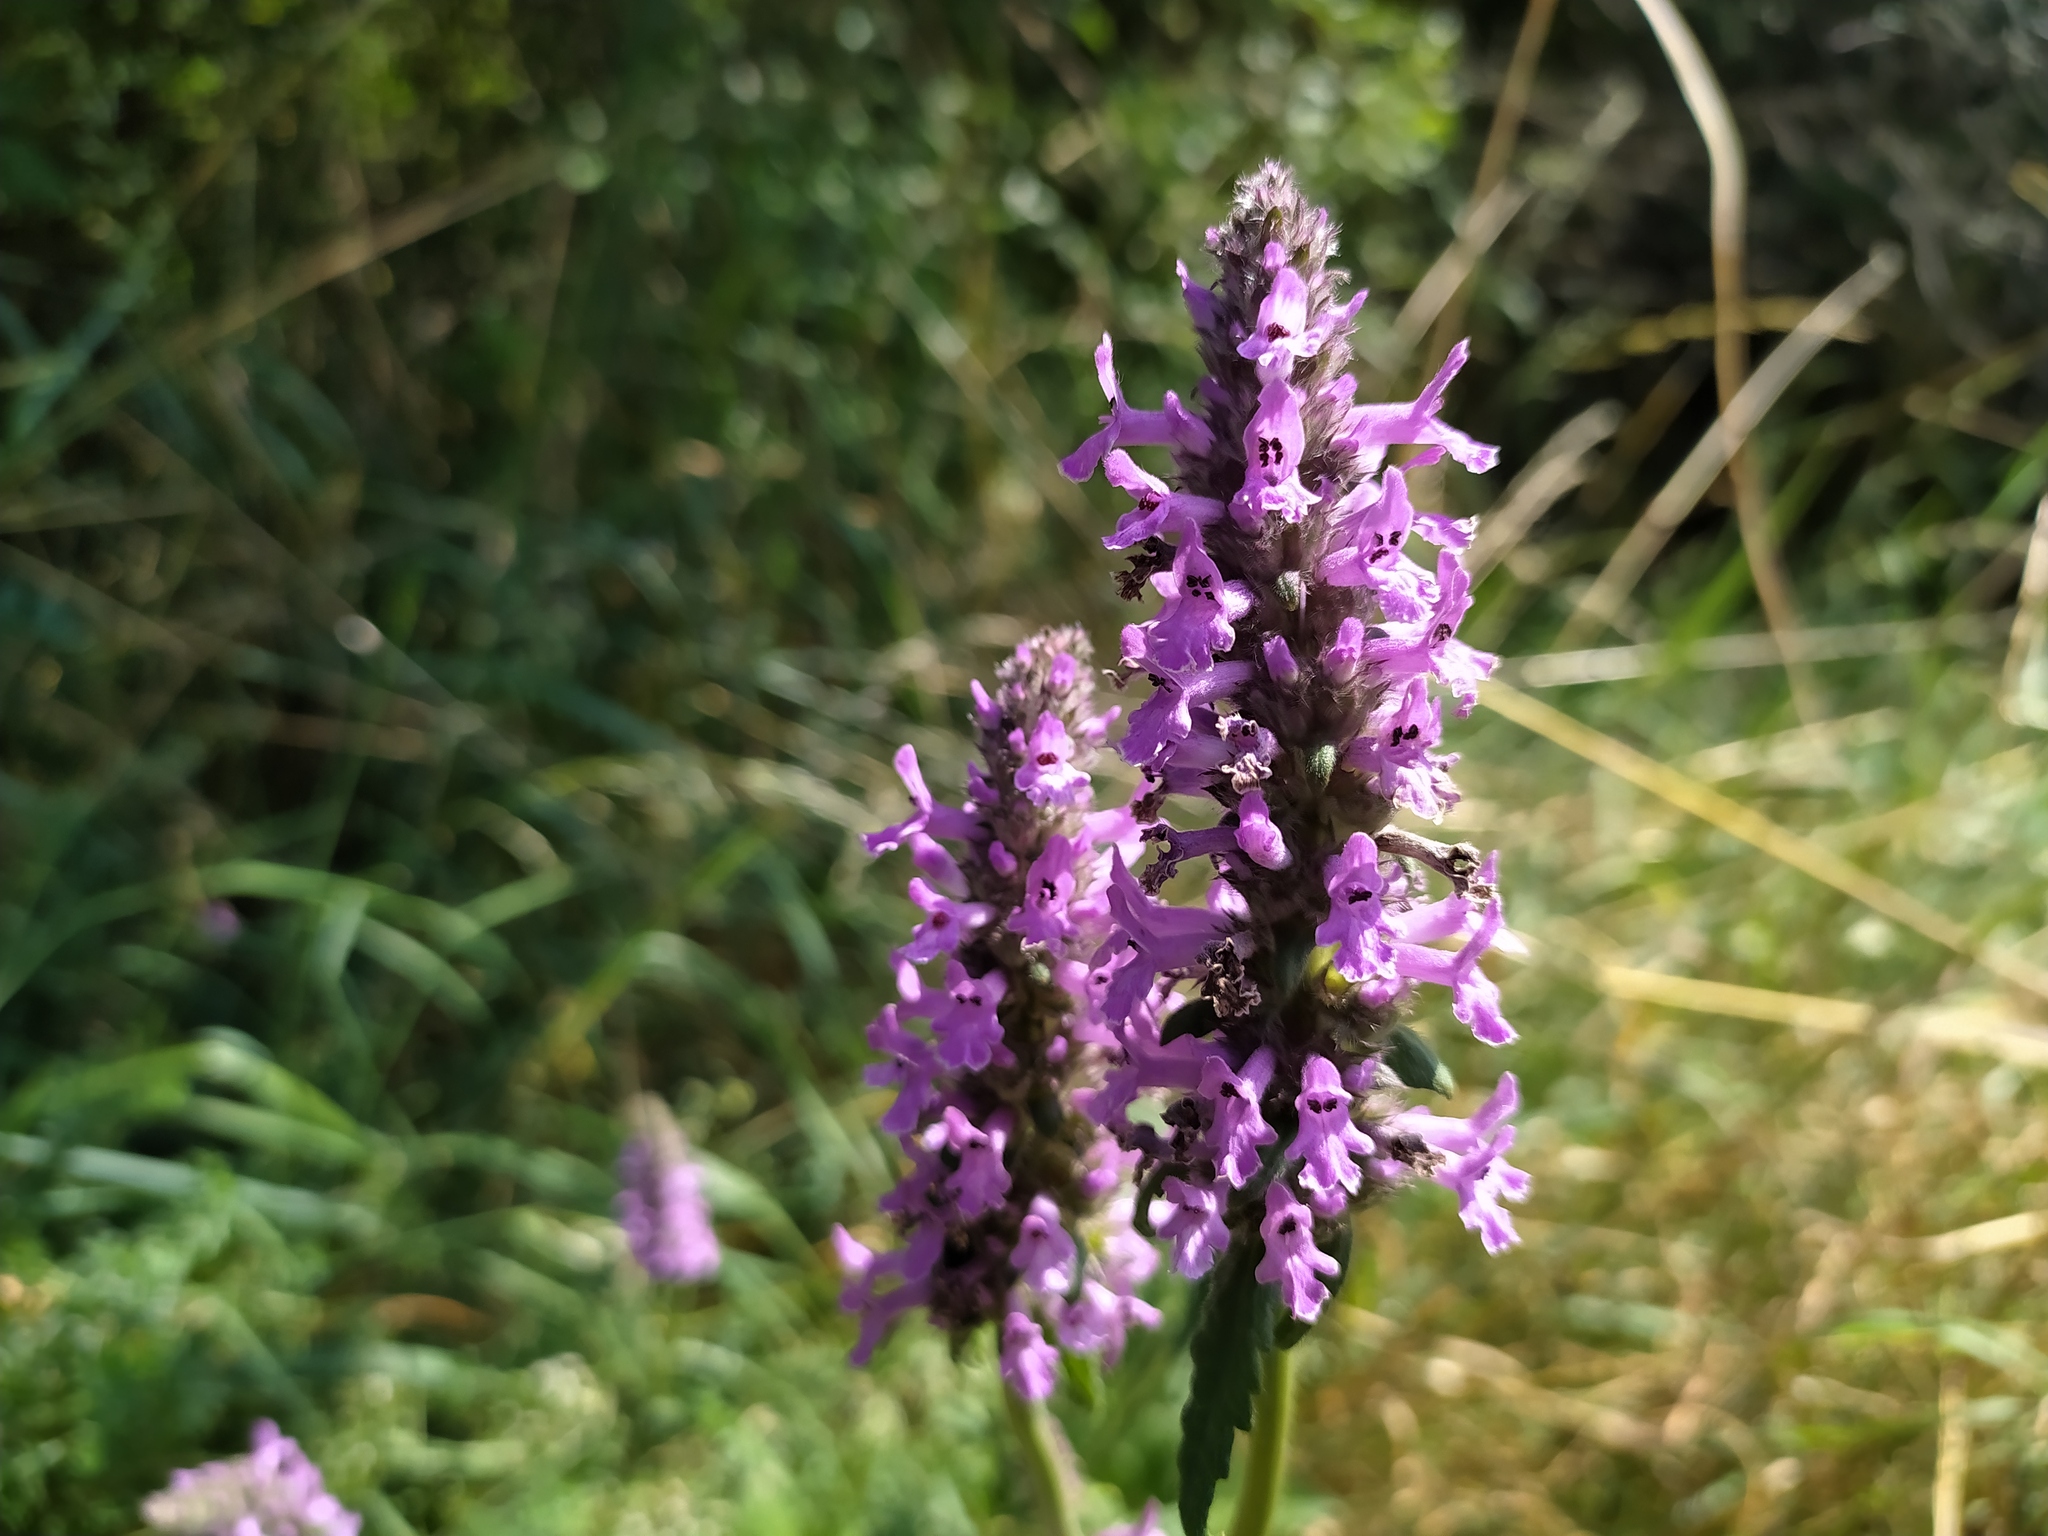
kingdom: Plantae
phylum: Tracheophyta
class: Magnoliopsida
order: Lamiales
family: Lamiaceae
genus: Betonica
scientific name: Betonica officinalis
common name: Bishop's-wort
